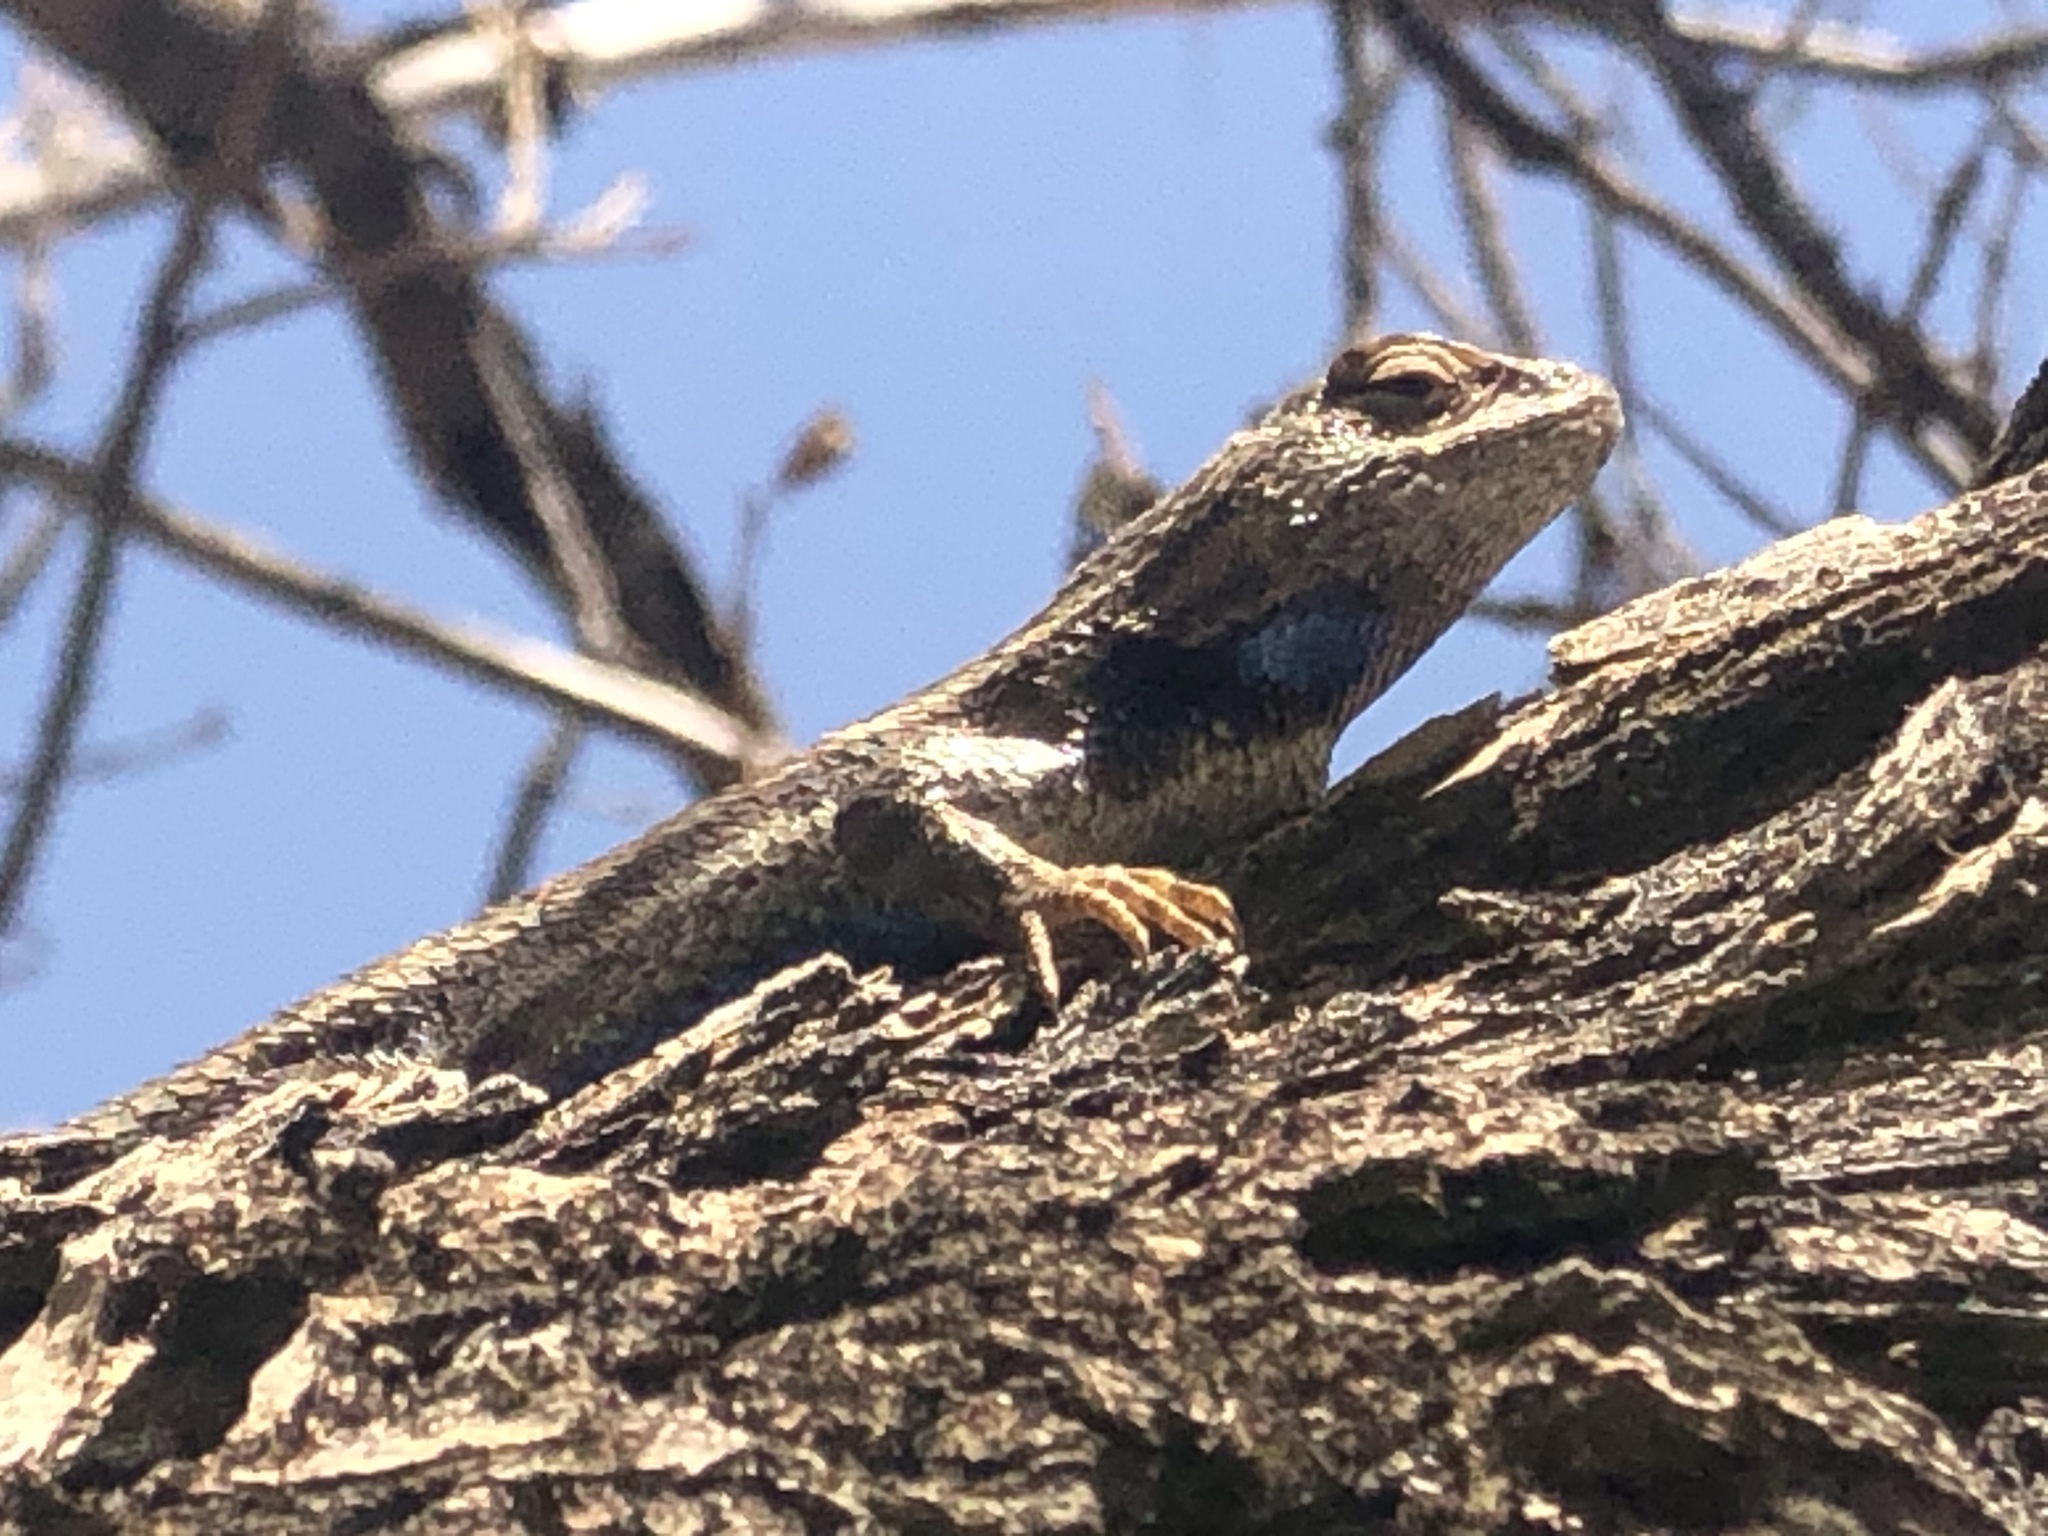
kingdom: Animalia
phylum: Chordata
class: Squamata
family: Phrynosomatidae
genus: Sceloporus
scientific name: Sceloporus cowlesi
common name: White sands prairie lizard
